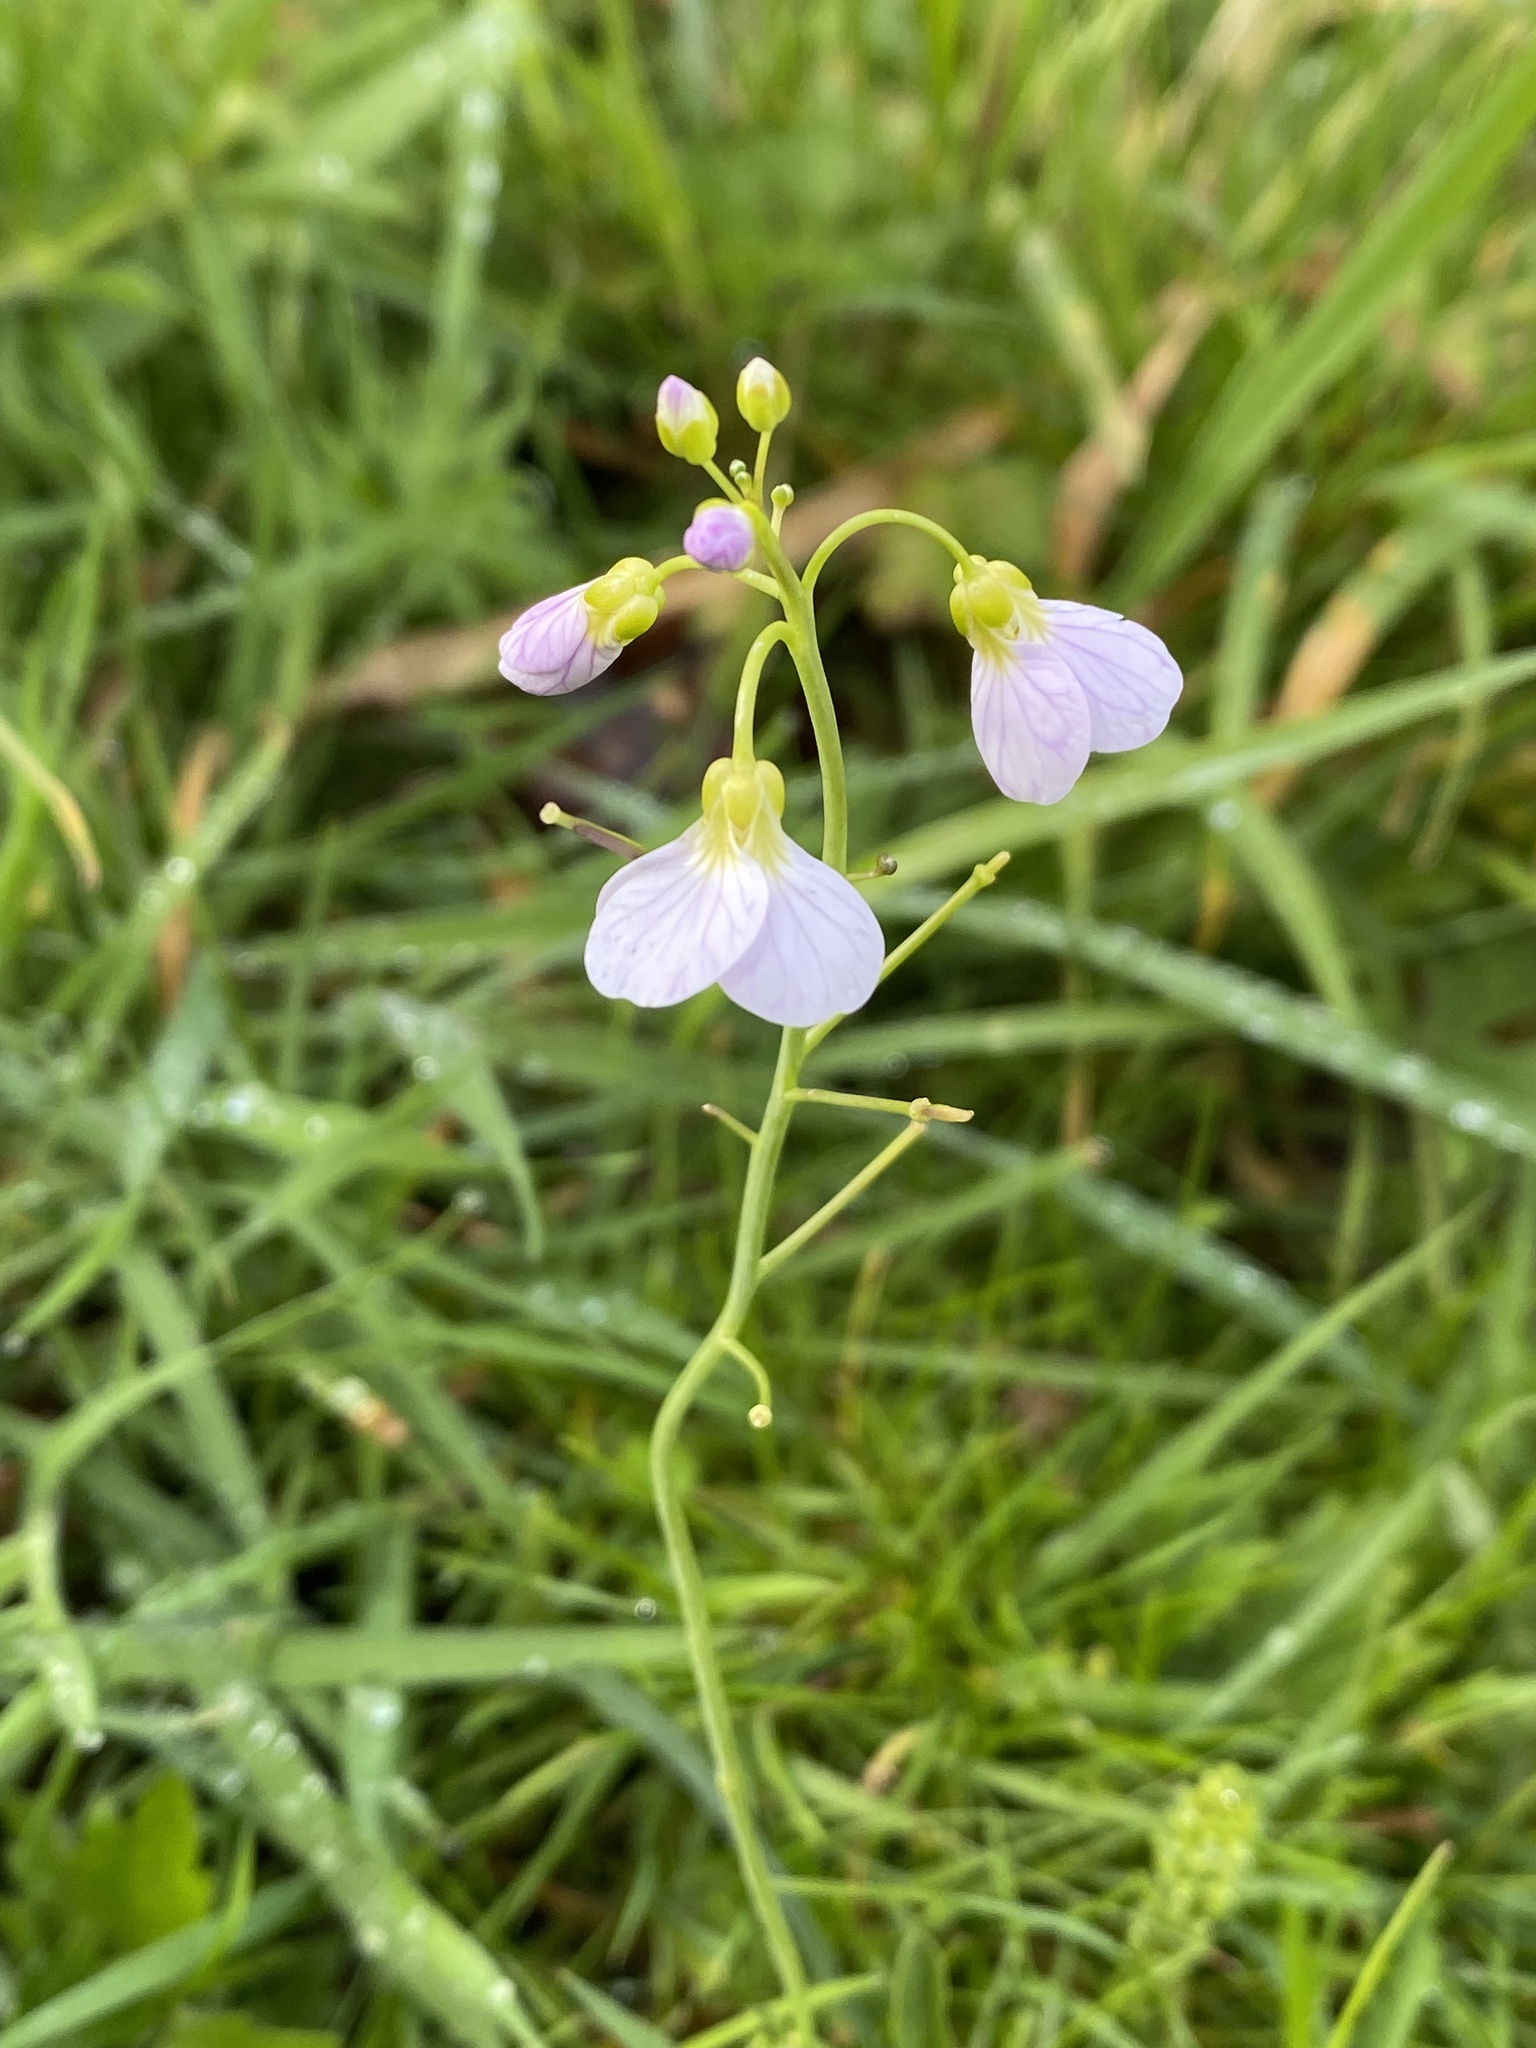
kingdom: Plantae
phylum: Tracheophyta
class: Magnoliopsida
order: Brassicales
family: Brassicaceae
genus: Cardamine
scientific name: Cardamine pratensis
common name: Cuckoo flower
